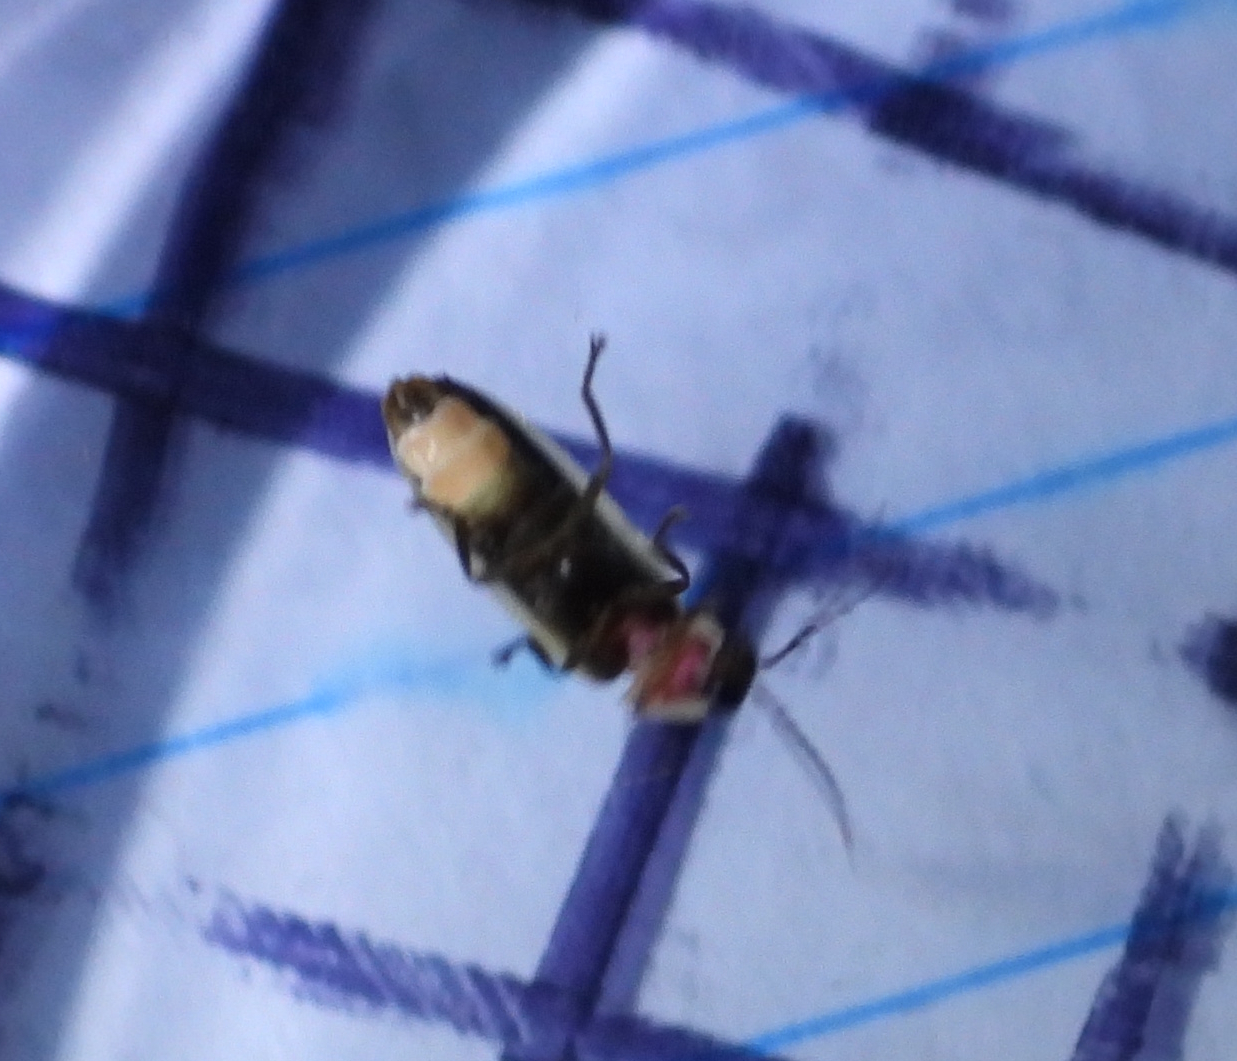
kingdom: Animalia
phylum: Arthropoda
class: Insecta
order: Coleoptera
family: Lampyridae
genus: Photinus
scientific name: Photinus sabulosus
